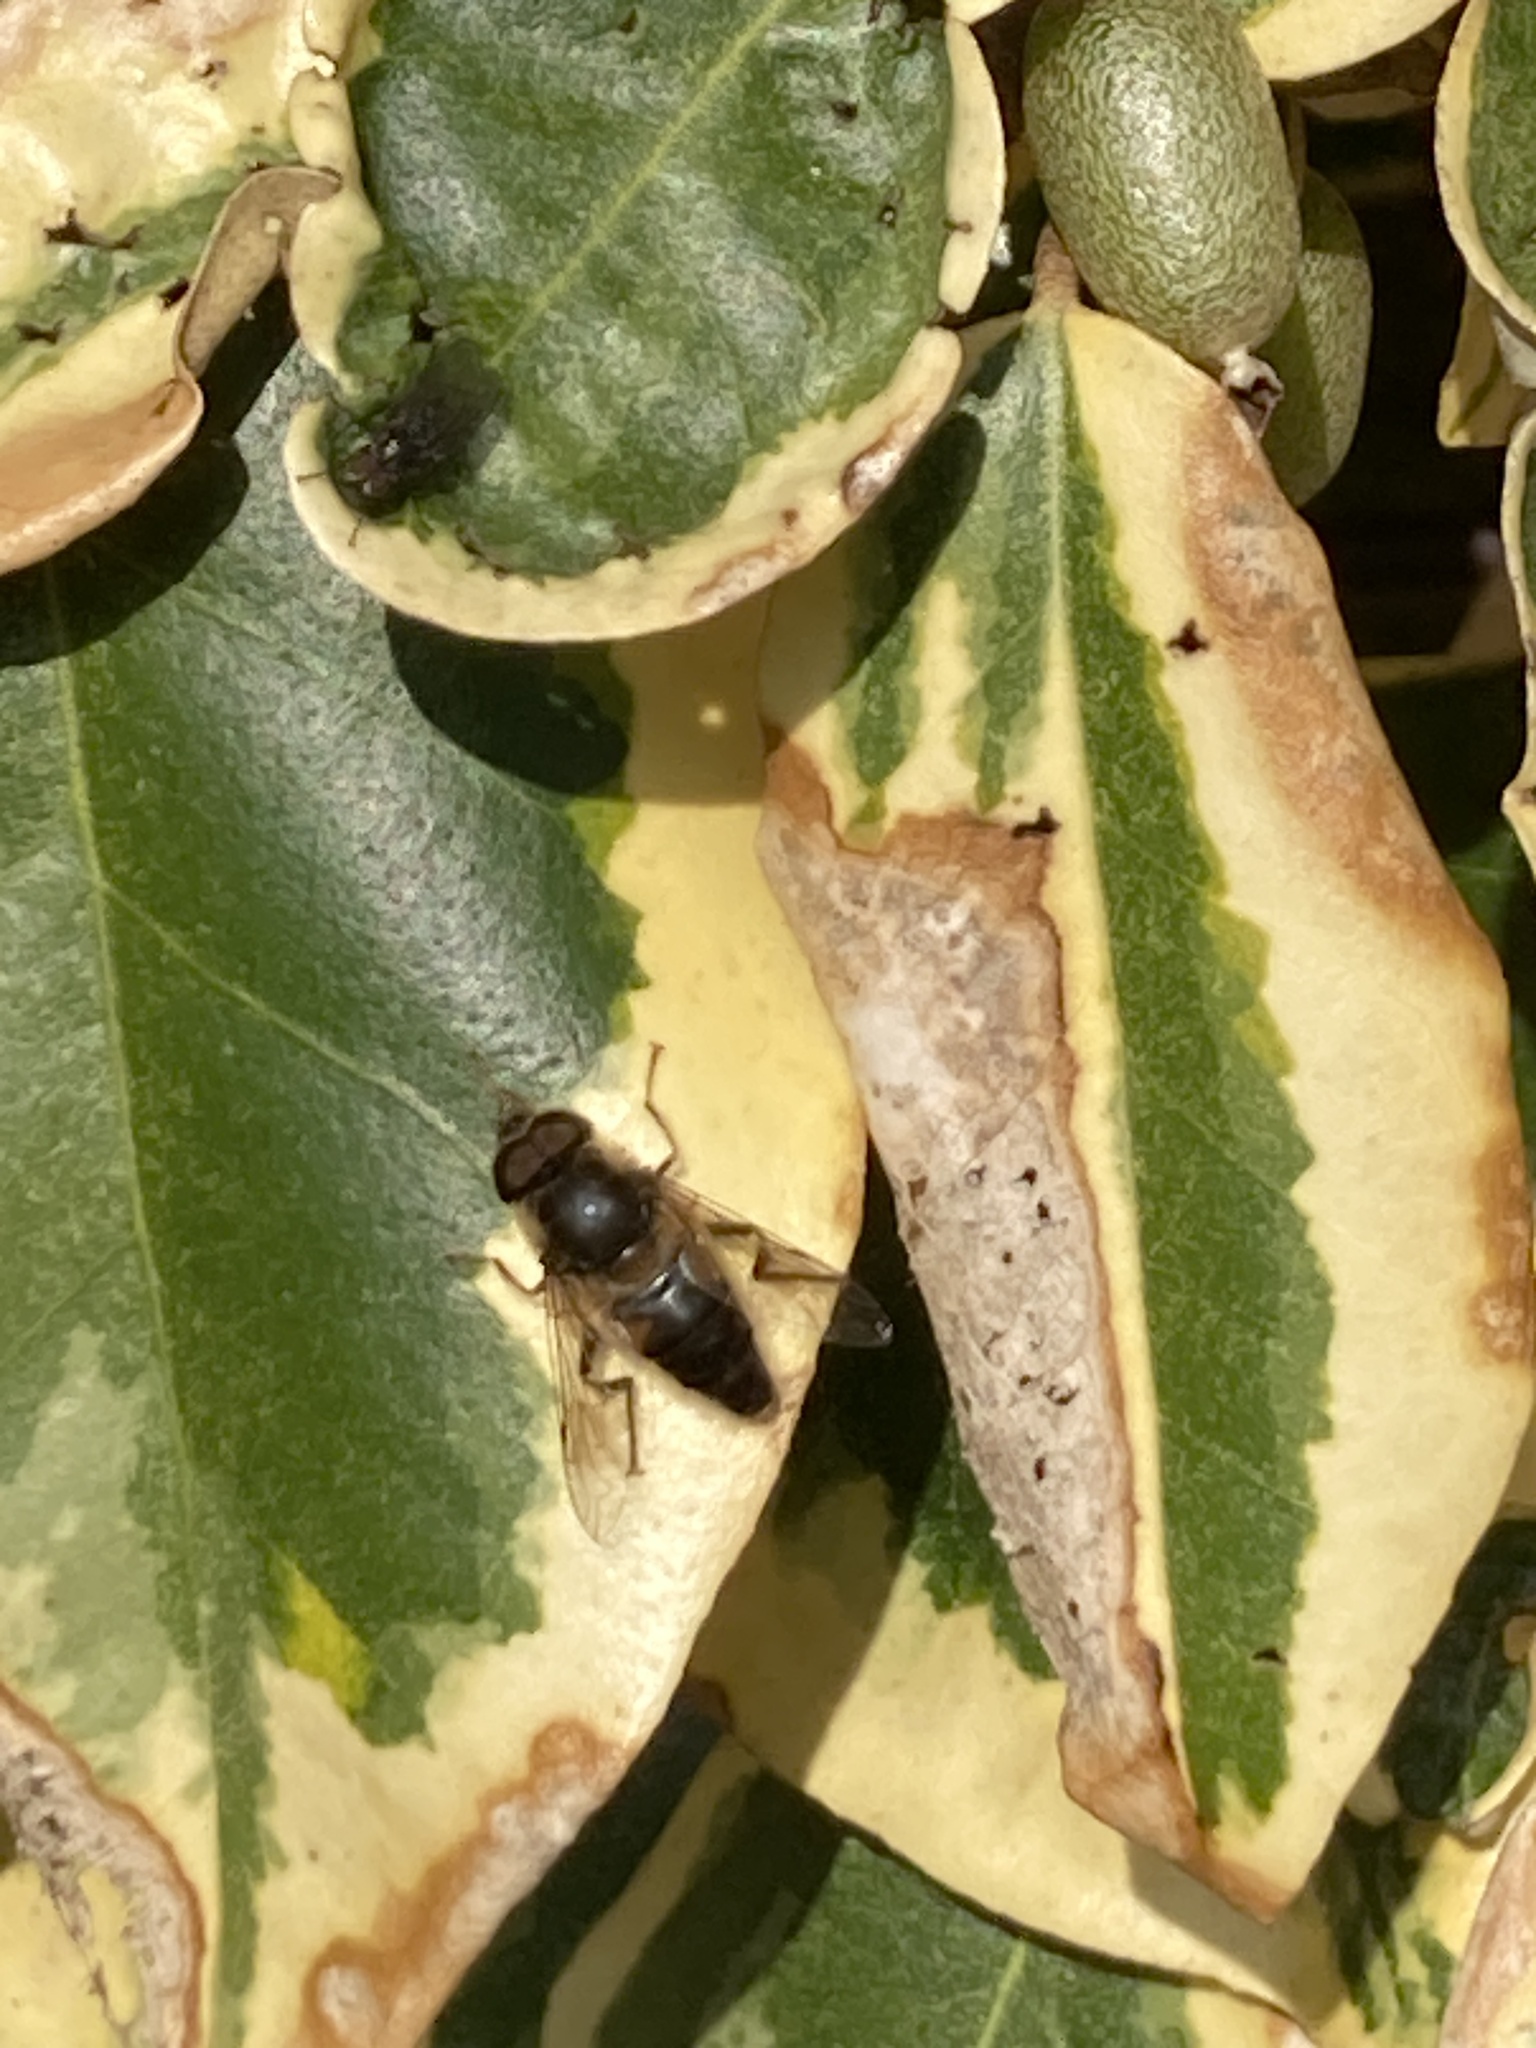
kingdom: Animalia
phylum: Arthropoda
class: Insecta
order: Diptera
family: Syrphidae
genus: Eristalis
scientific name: Eristalis pertinax
